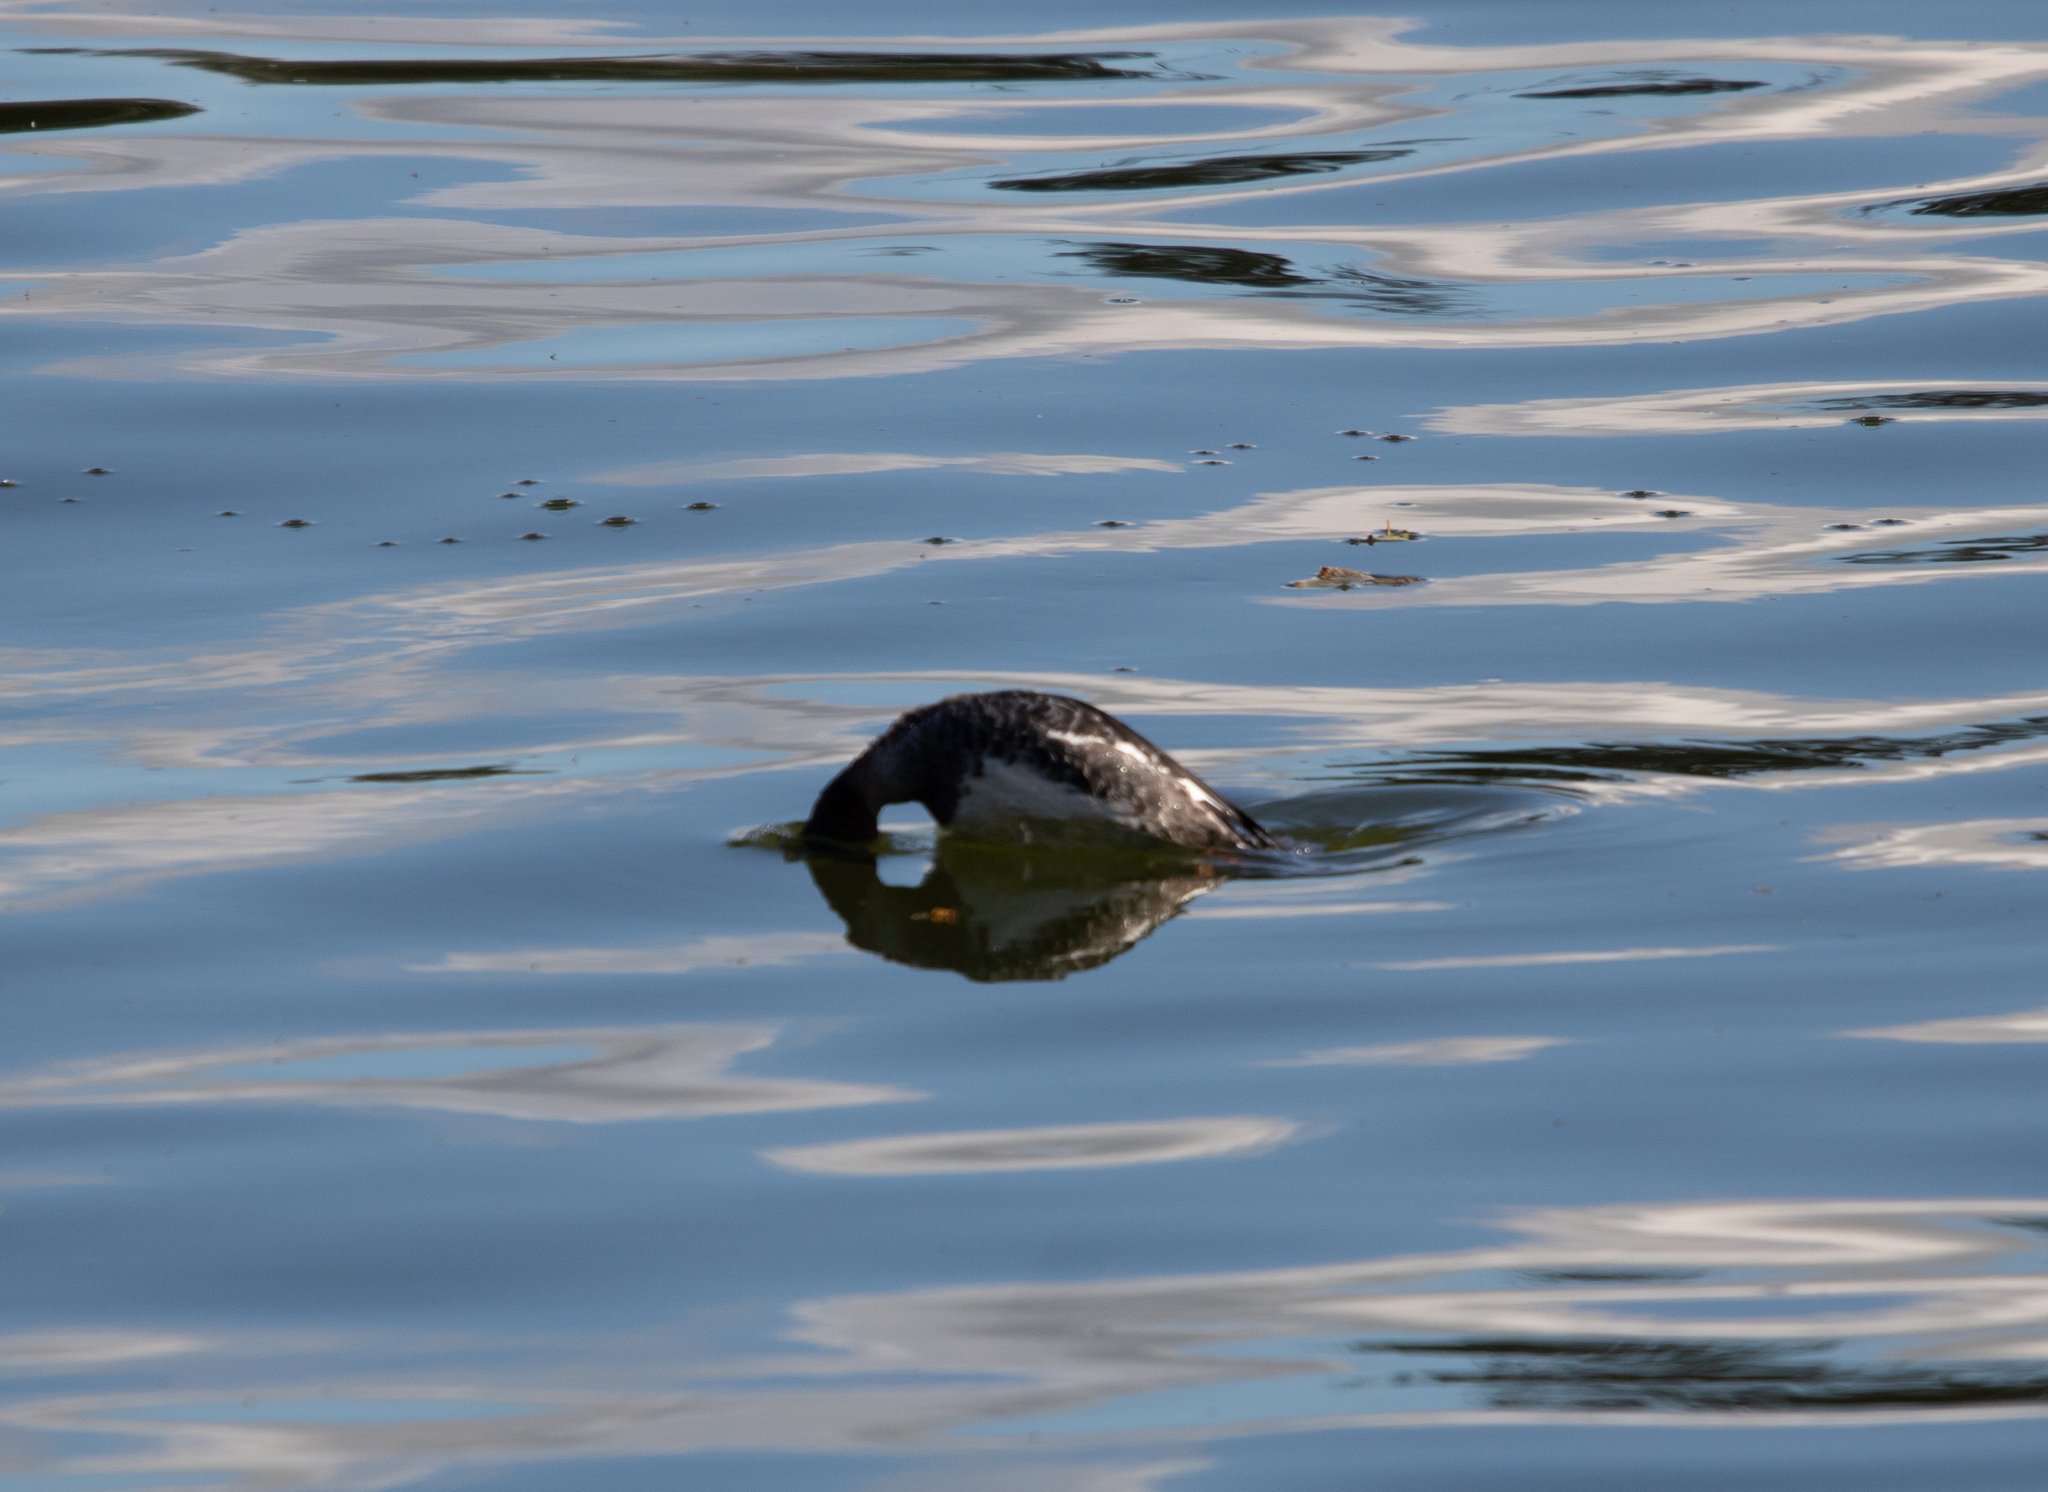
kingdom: Animalia
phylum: Chordata
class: Aves
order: Anseriformes
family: Anatidae
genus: Bucephala
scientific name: Bucephala clangula
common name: Common goldeneye
